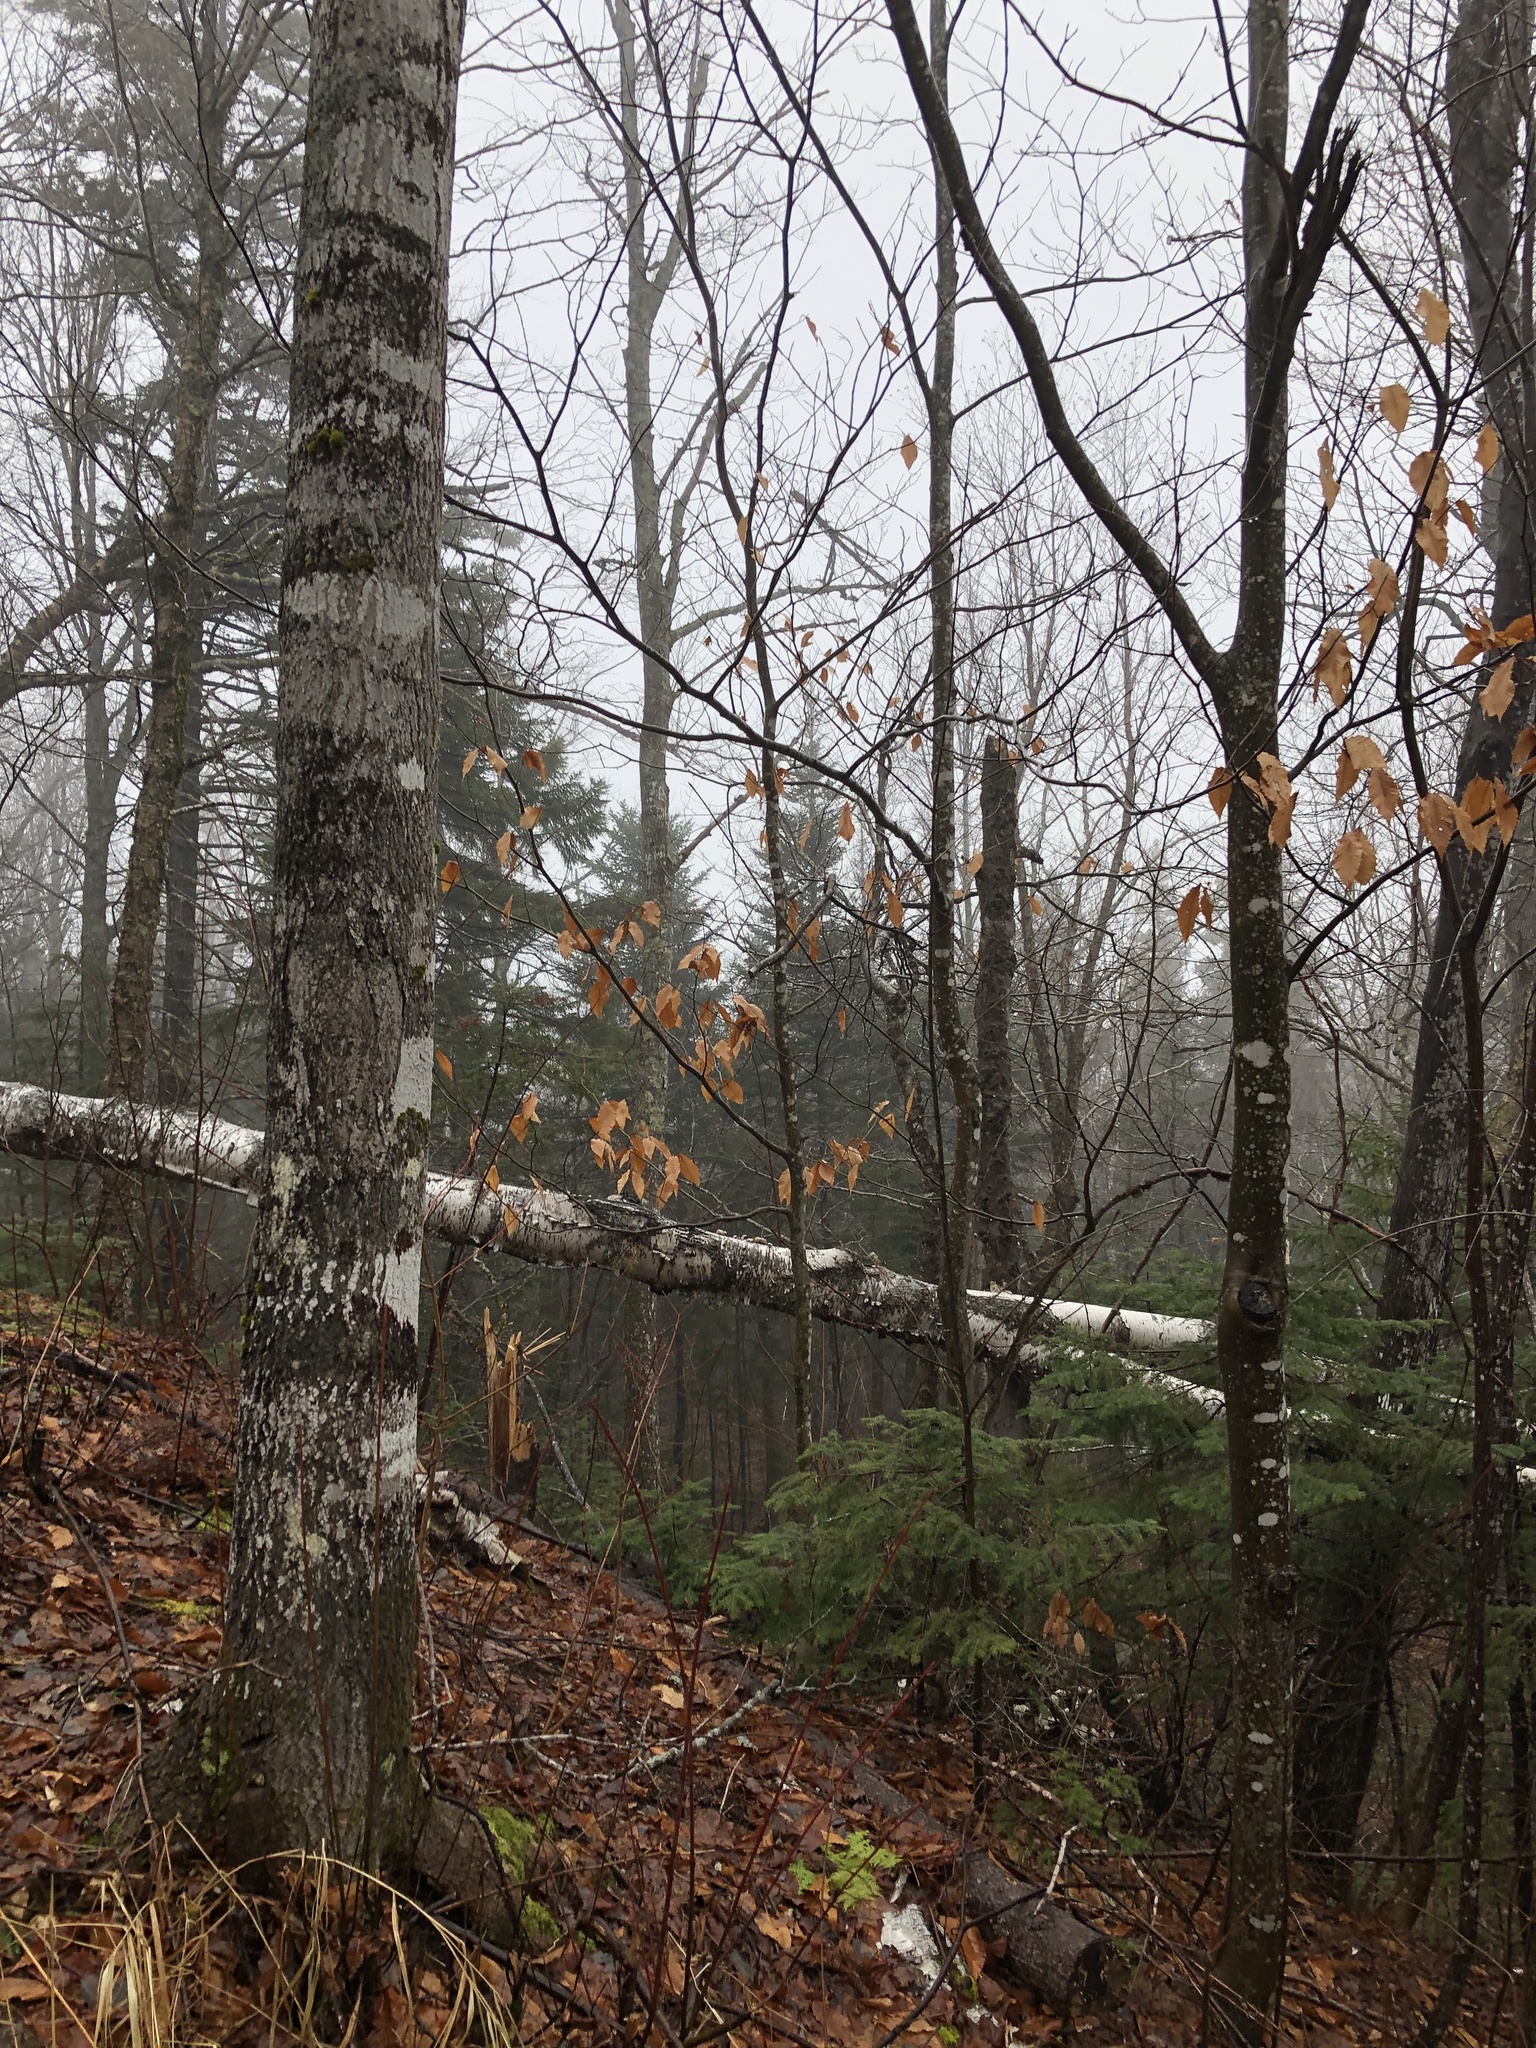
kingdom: Plantae
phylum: Tracheophyta
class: Magnoliopsida
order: Fagales
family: Fagaceae
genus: Fagus
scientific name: Fagus grandifolia
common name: American beech
